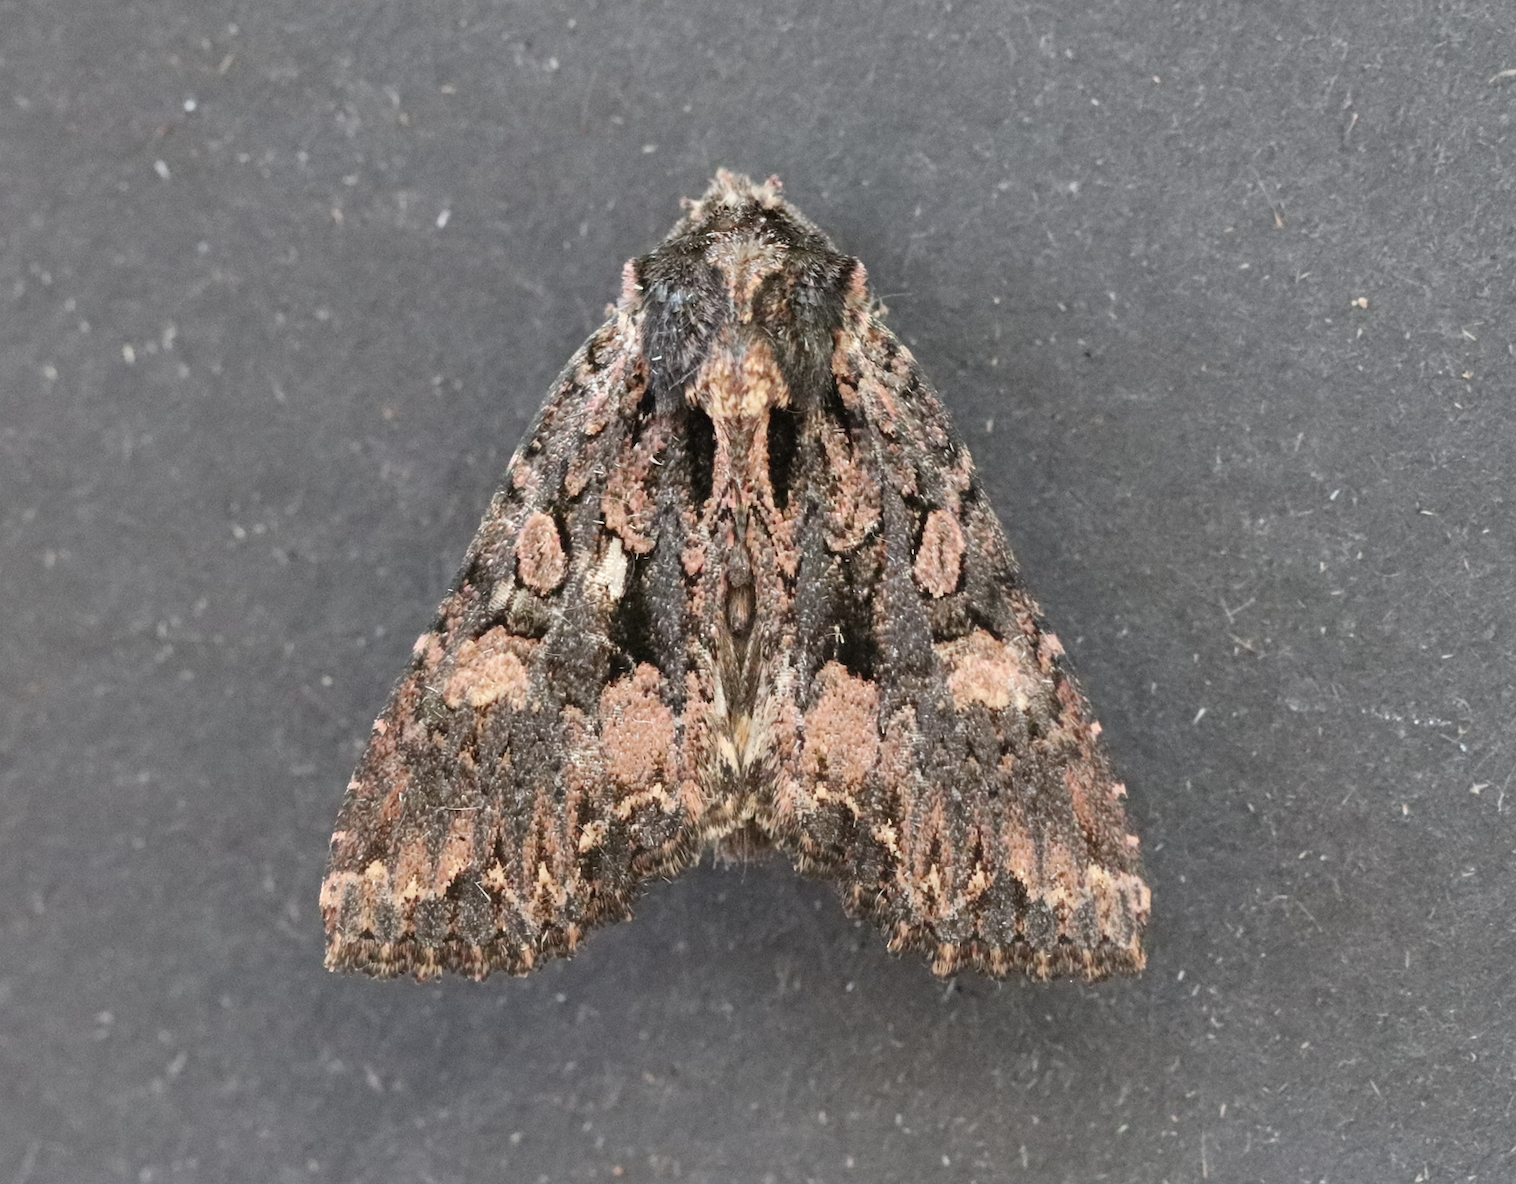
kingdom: Animalia
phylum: Arthropoda
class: Insecta
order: Lepidoptera
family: Noctuidae
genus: Mniotype
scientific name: Mniotype satura
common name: Beautiful arches
